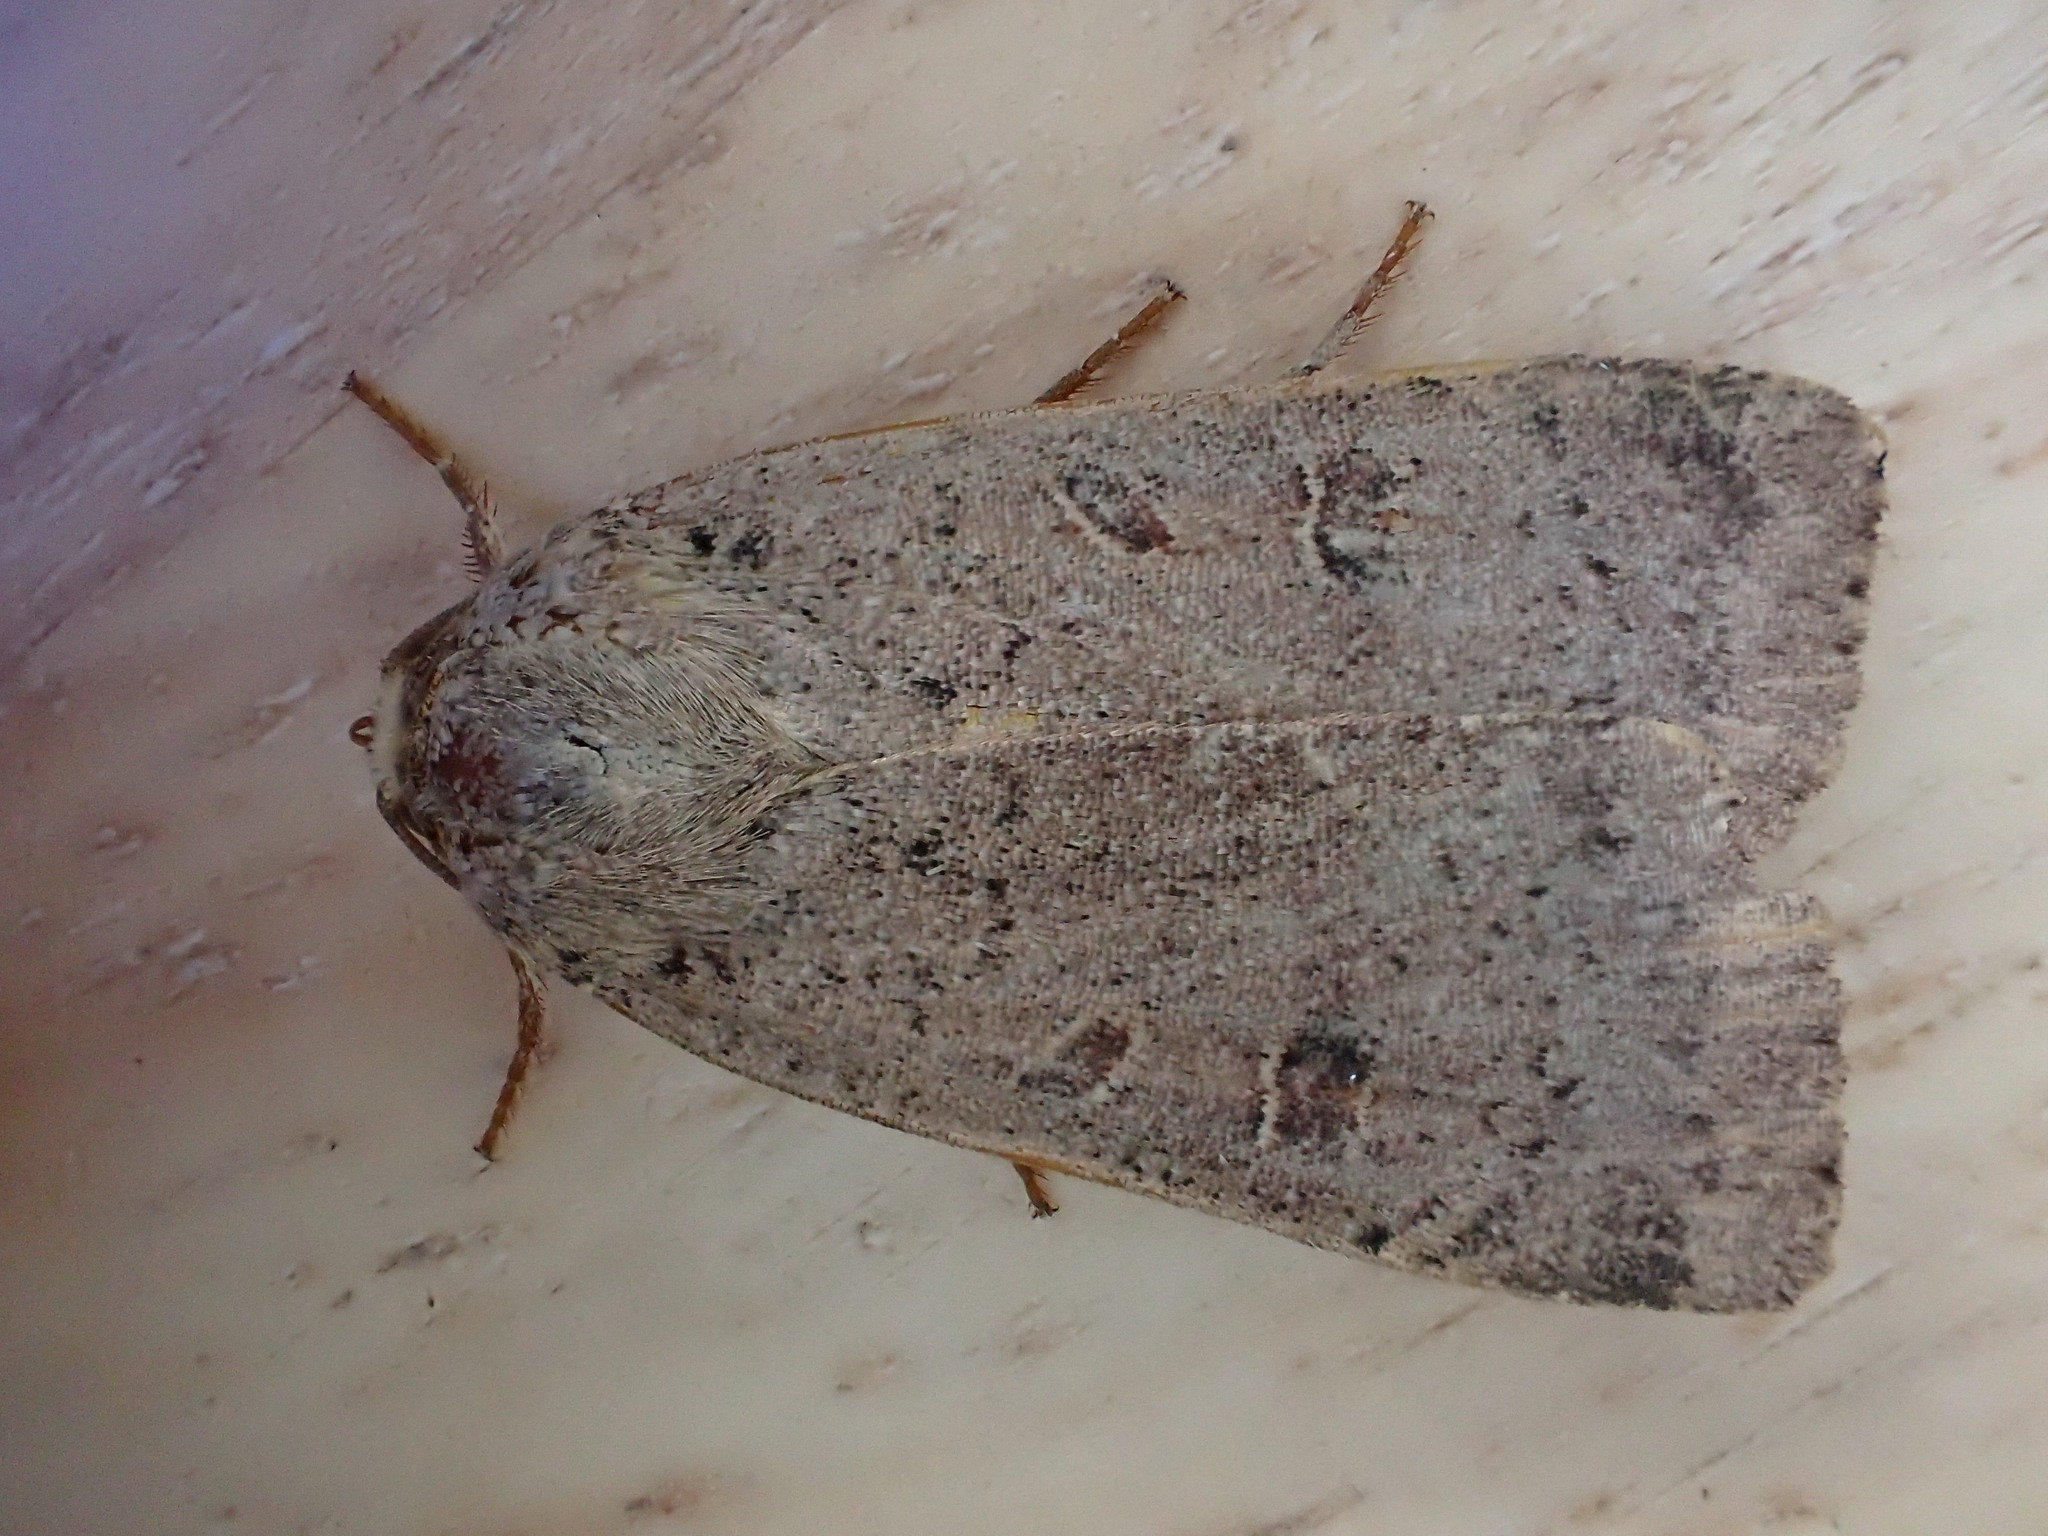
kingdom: Animalia
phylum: Arthropoda
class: Insecta
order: Lepidoptera
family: Noctuidae
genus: Noctua
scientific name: Noctua comes
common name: Lesser yellow underwing
